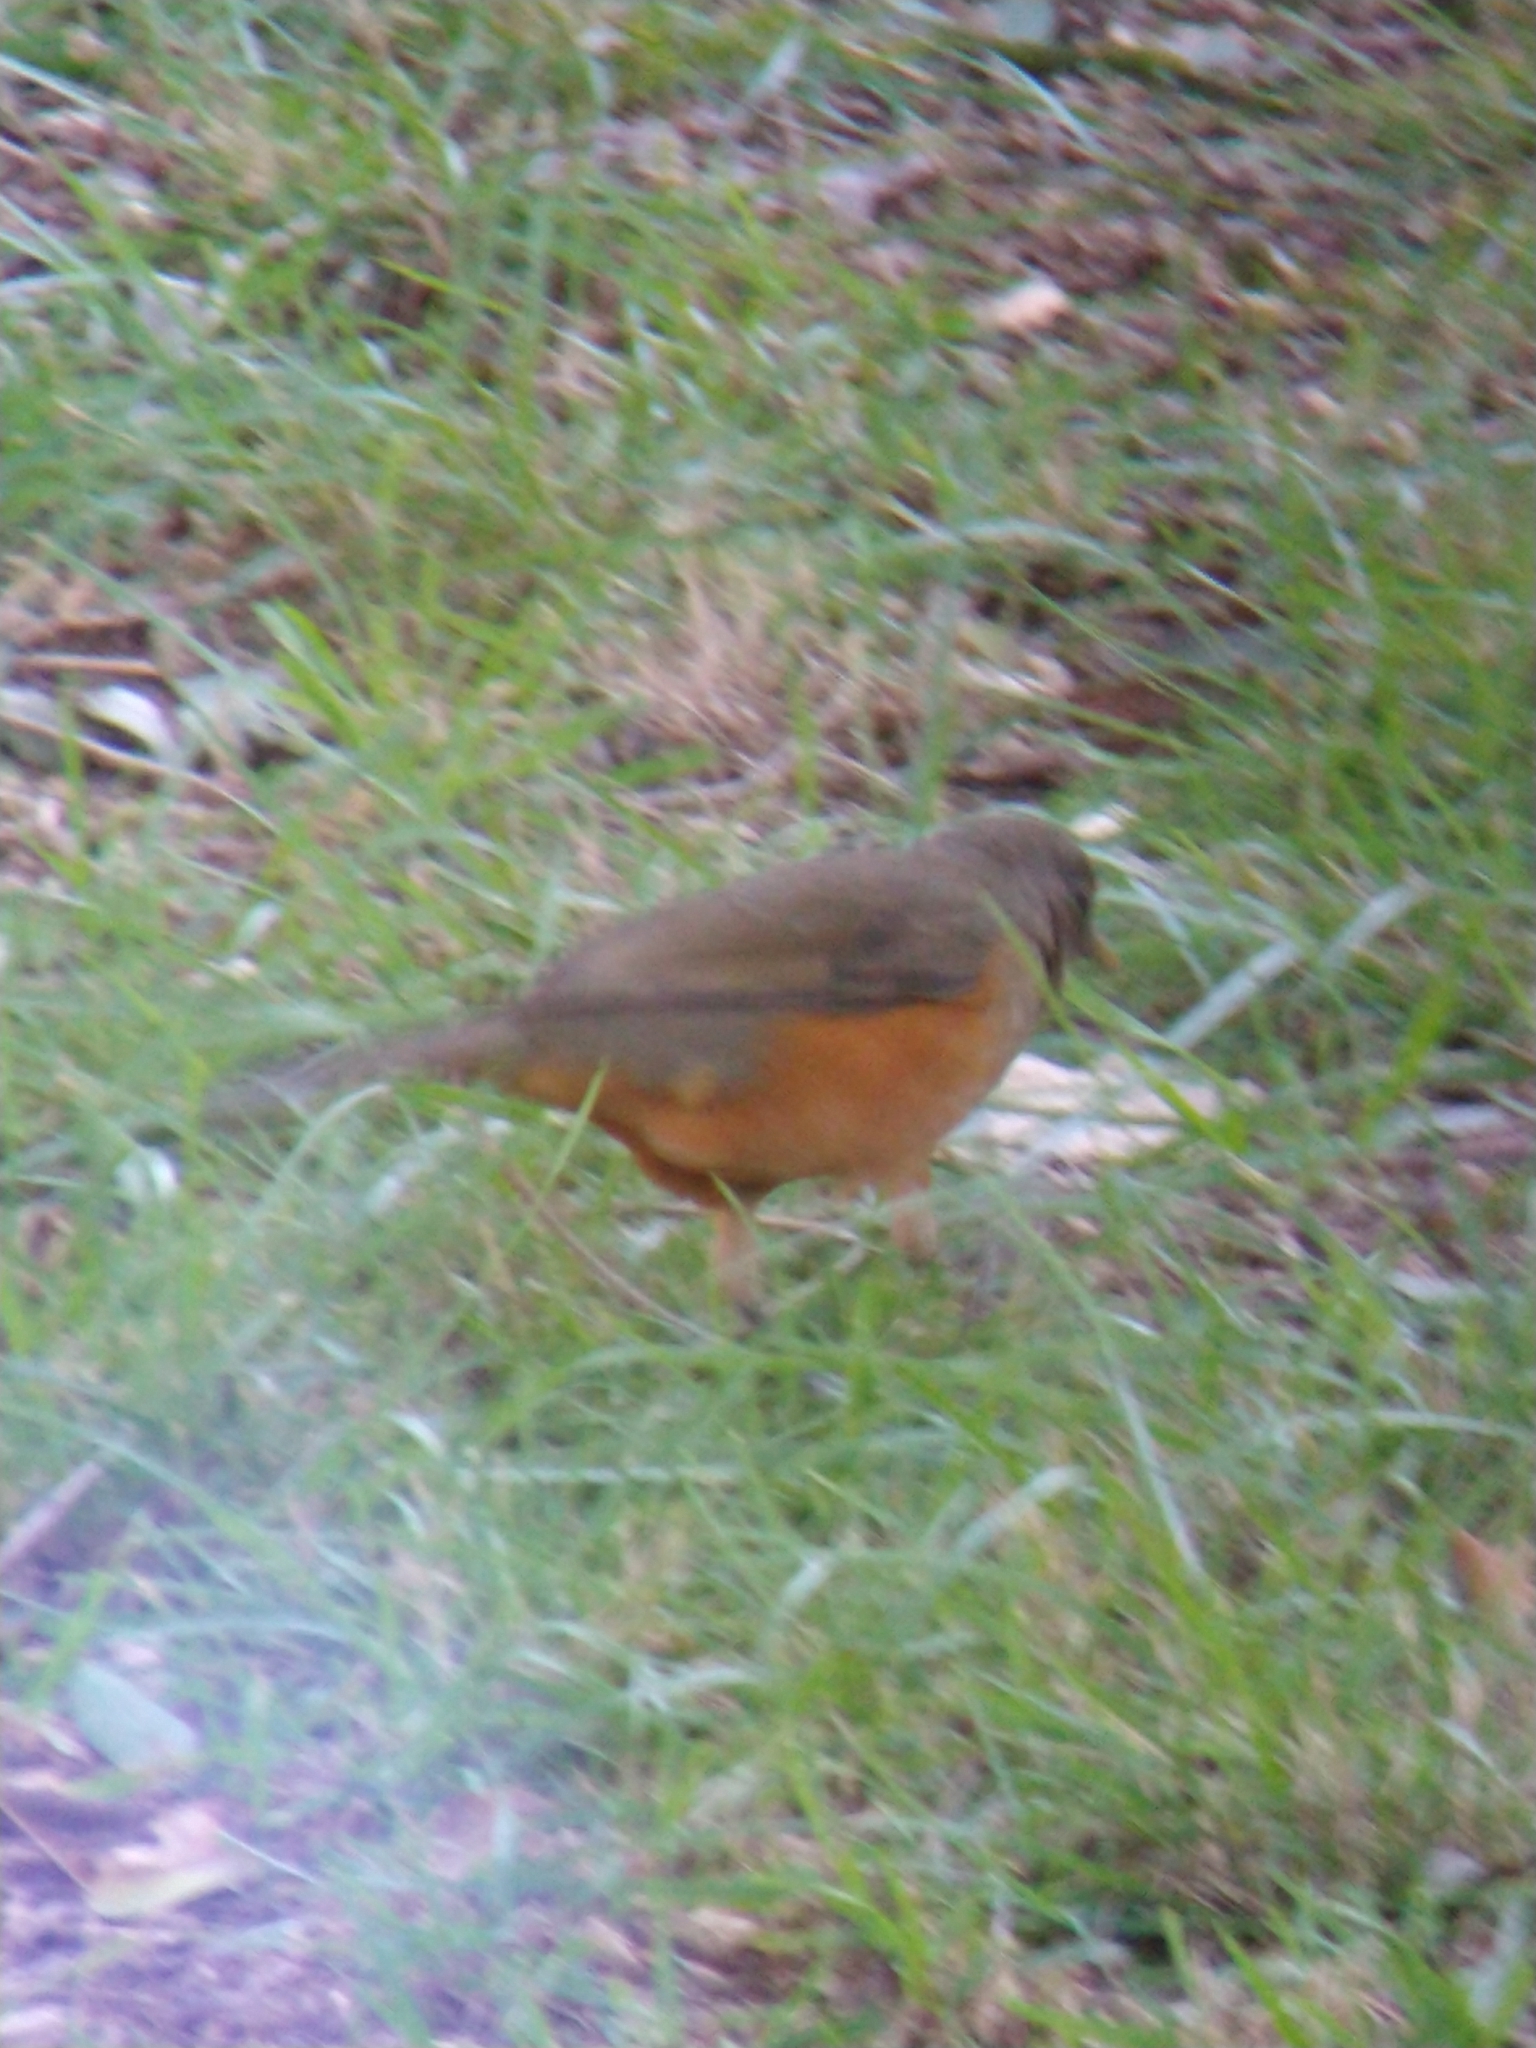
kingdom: Animalia
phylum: Chordata
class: Aves
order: Passeriformes
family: Turdidae
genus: Turdus
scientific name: Turdus rufiventris
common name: Rufous-bellied thrush
